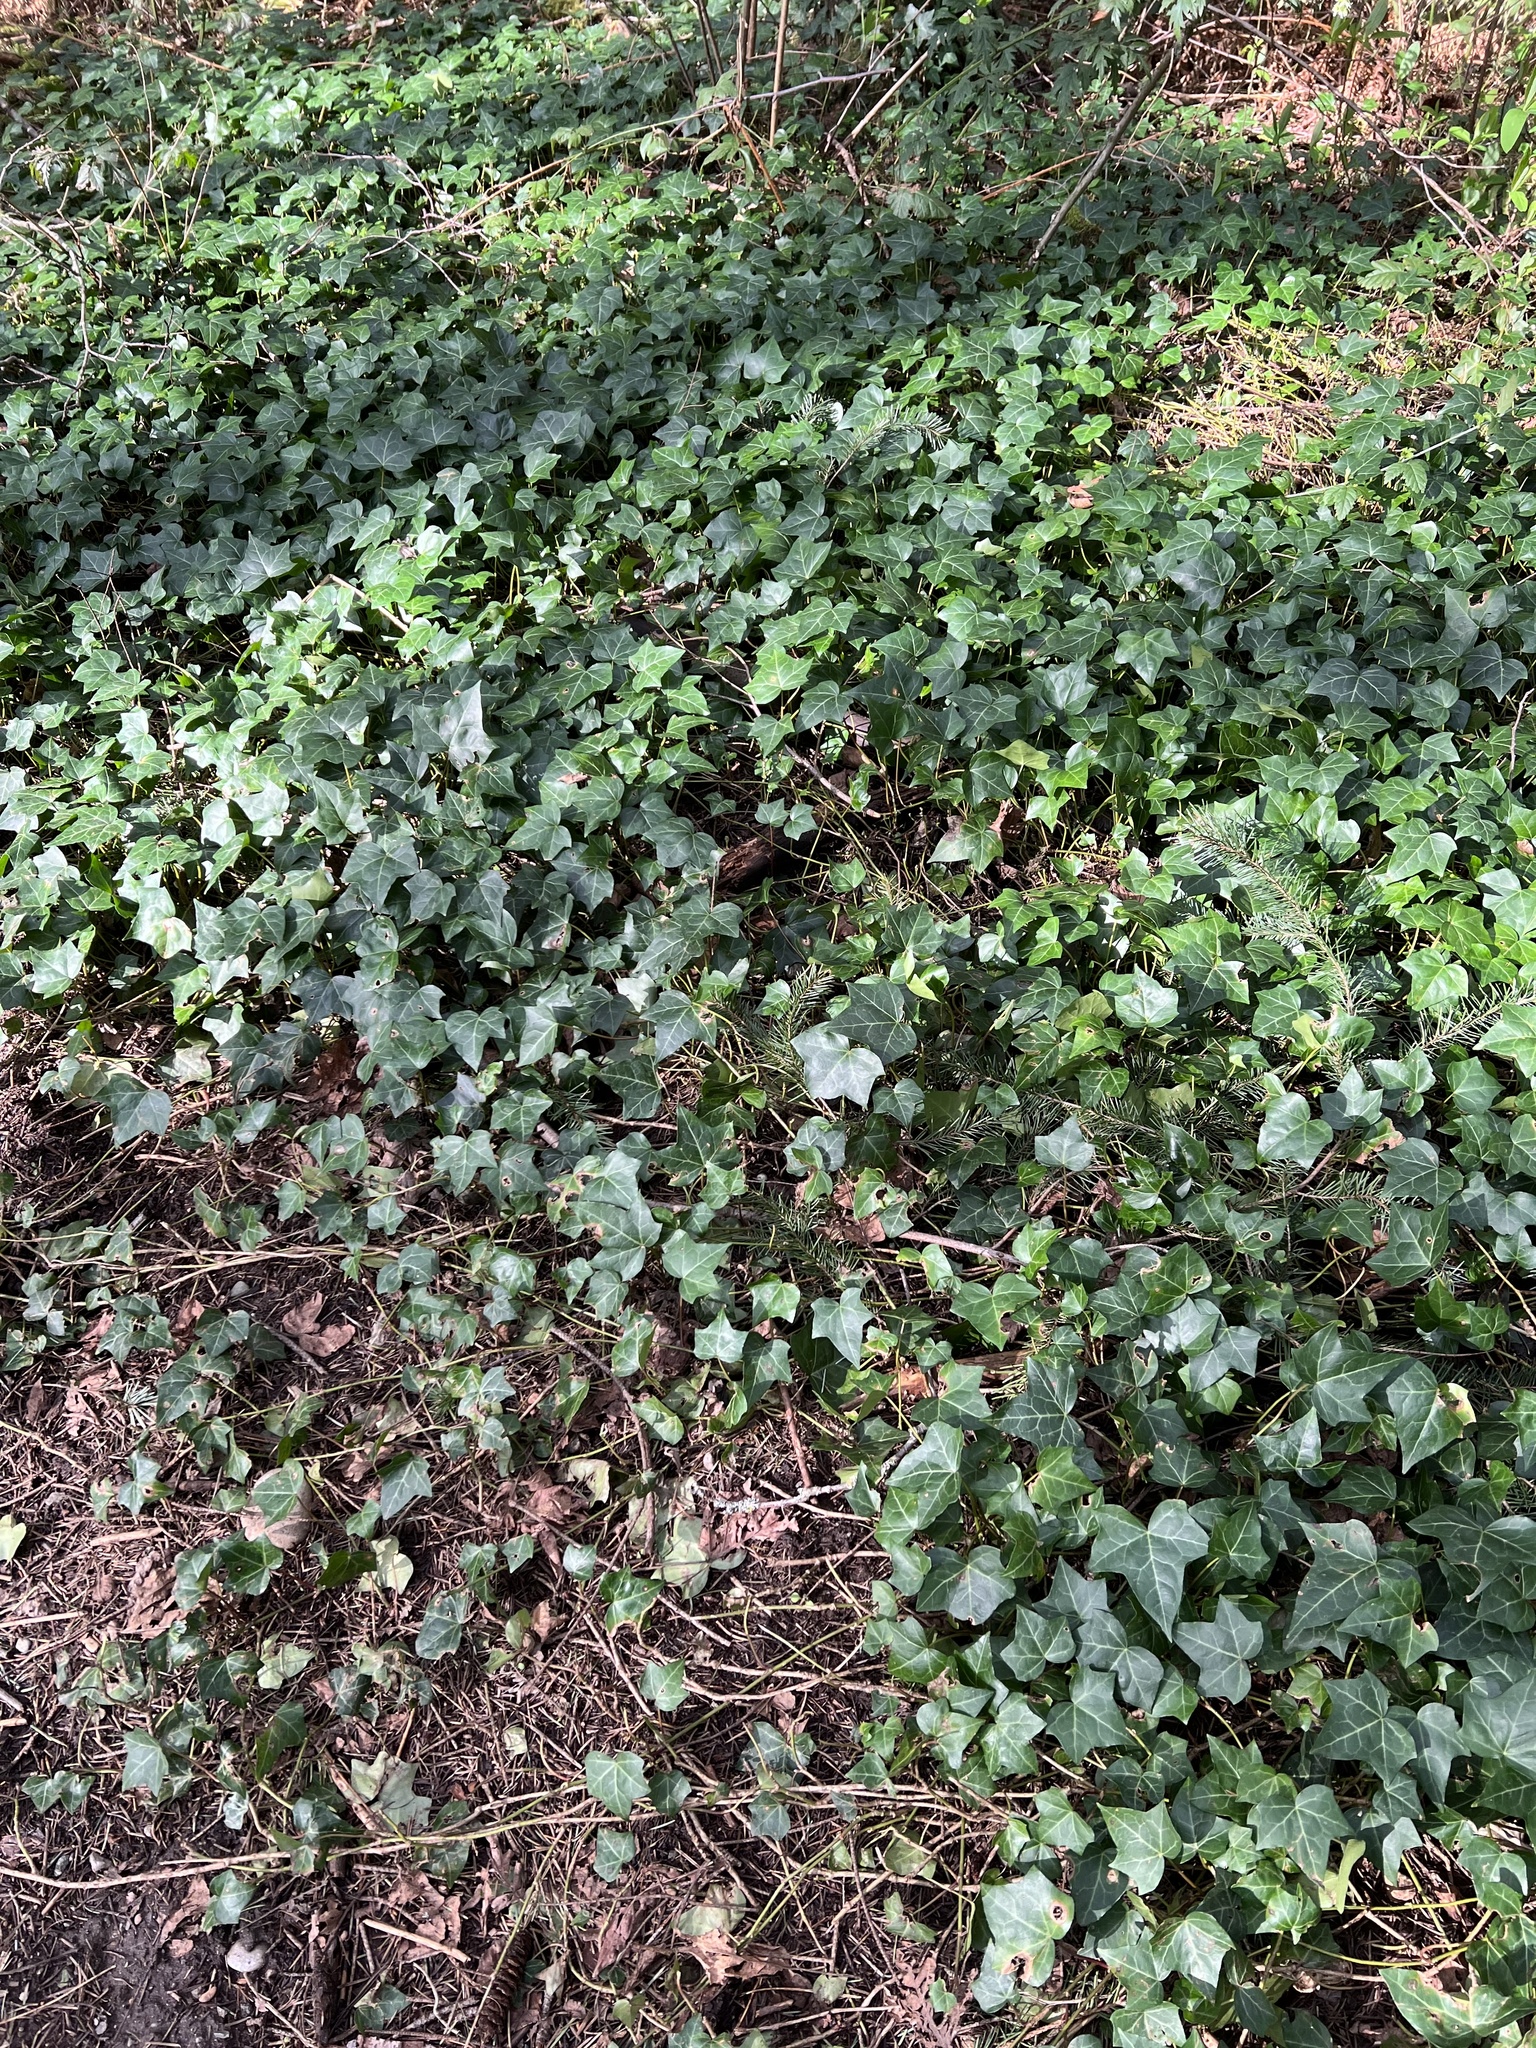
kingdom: Plantae
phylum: Tracheophyta
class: Magnoliopsida
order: Apiales
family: Araliaceae
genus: Hedera
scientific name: Hedera helix
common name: Ivy
